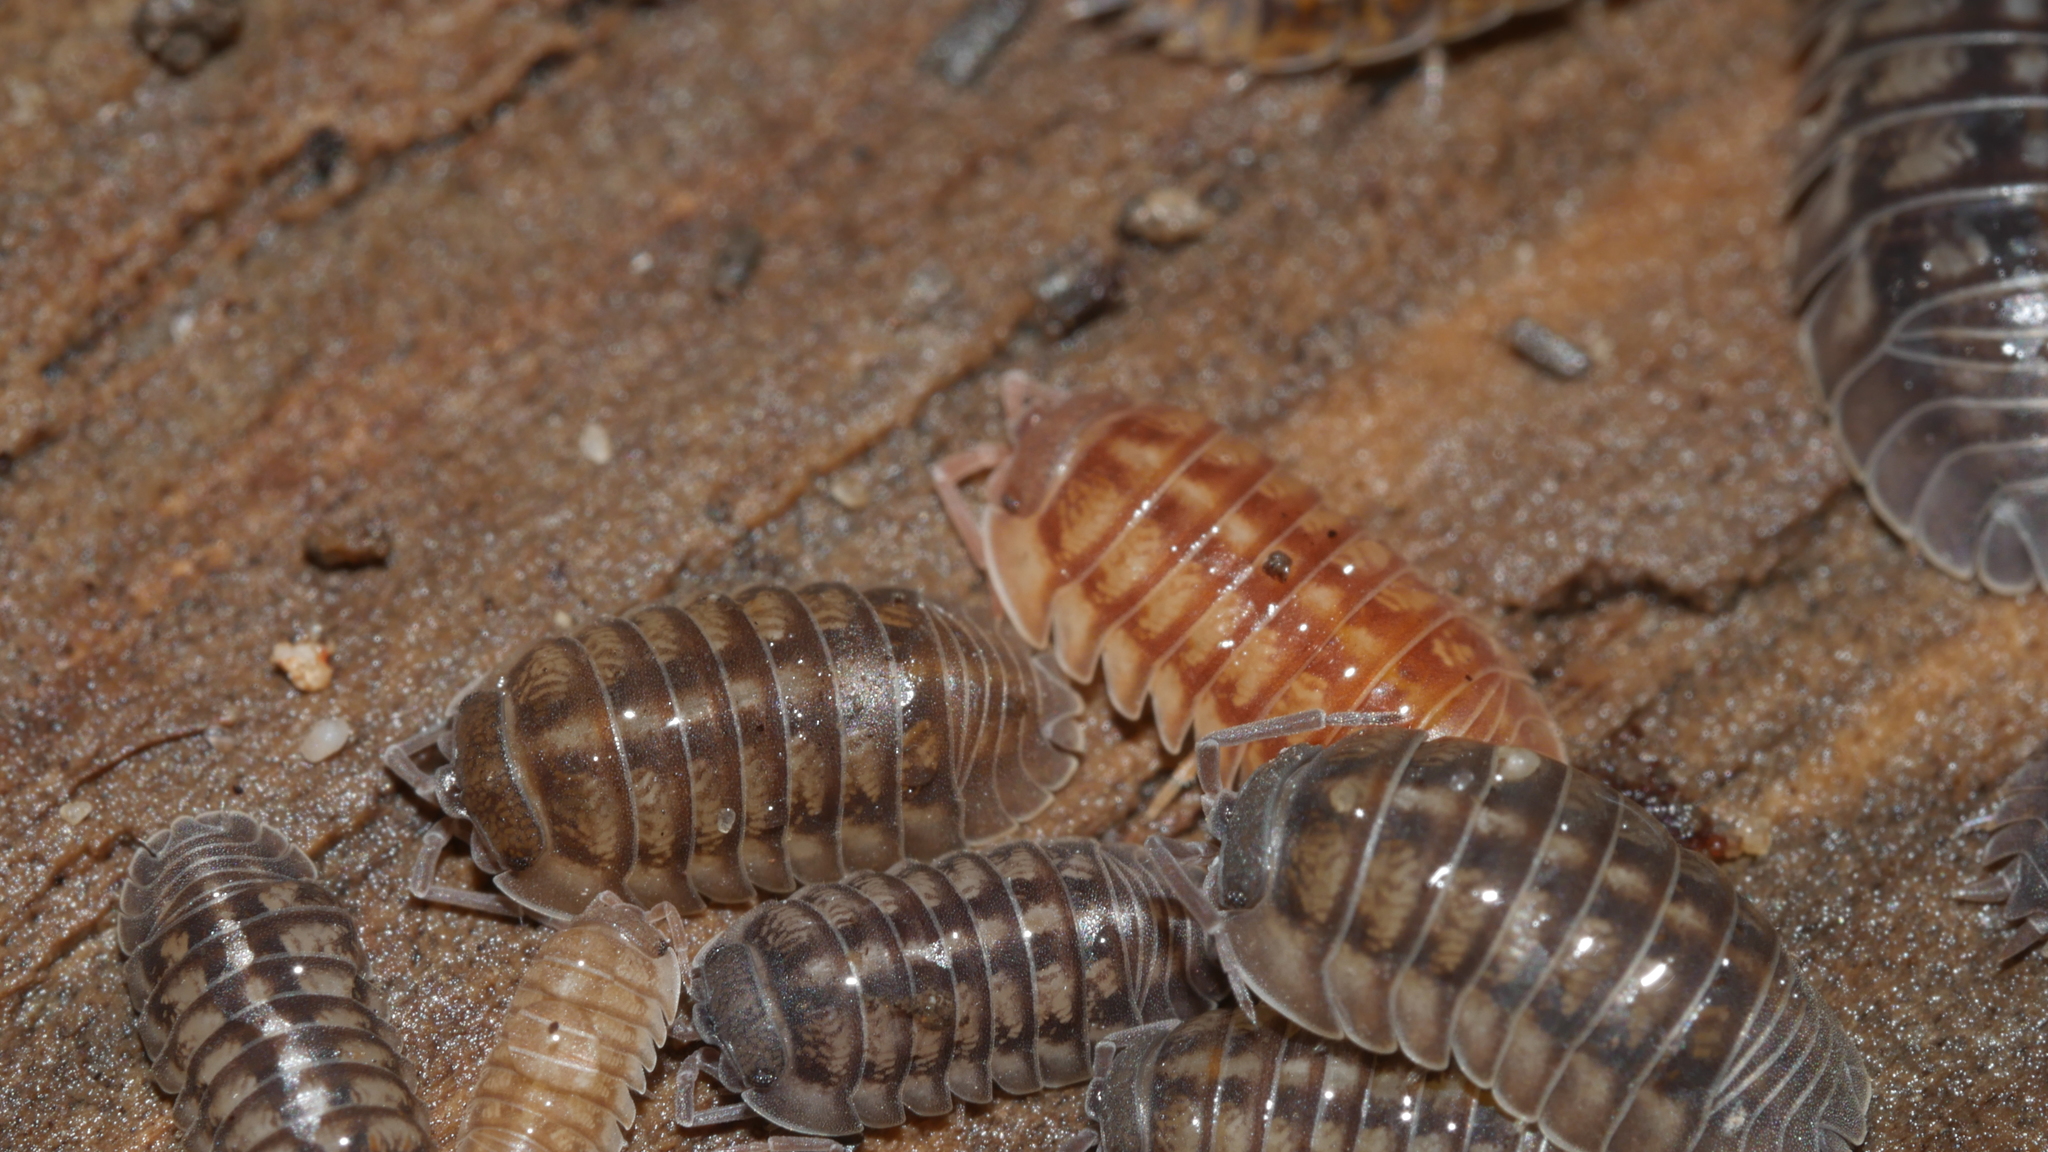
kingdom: Animalia
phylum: Arthropoda
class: Malacostraca
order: Isopoda
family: Armadillidiidae
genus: Armadillidium
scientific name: Armadillidium nasatum
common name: Isopod
